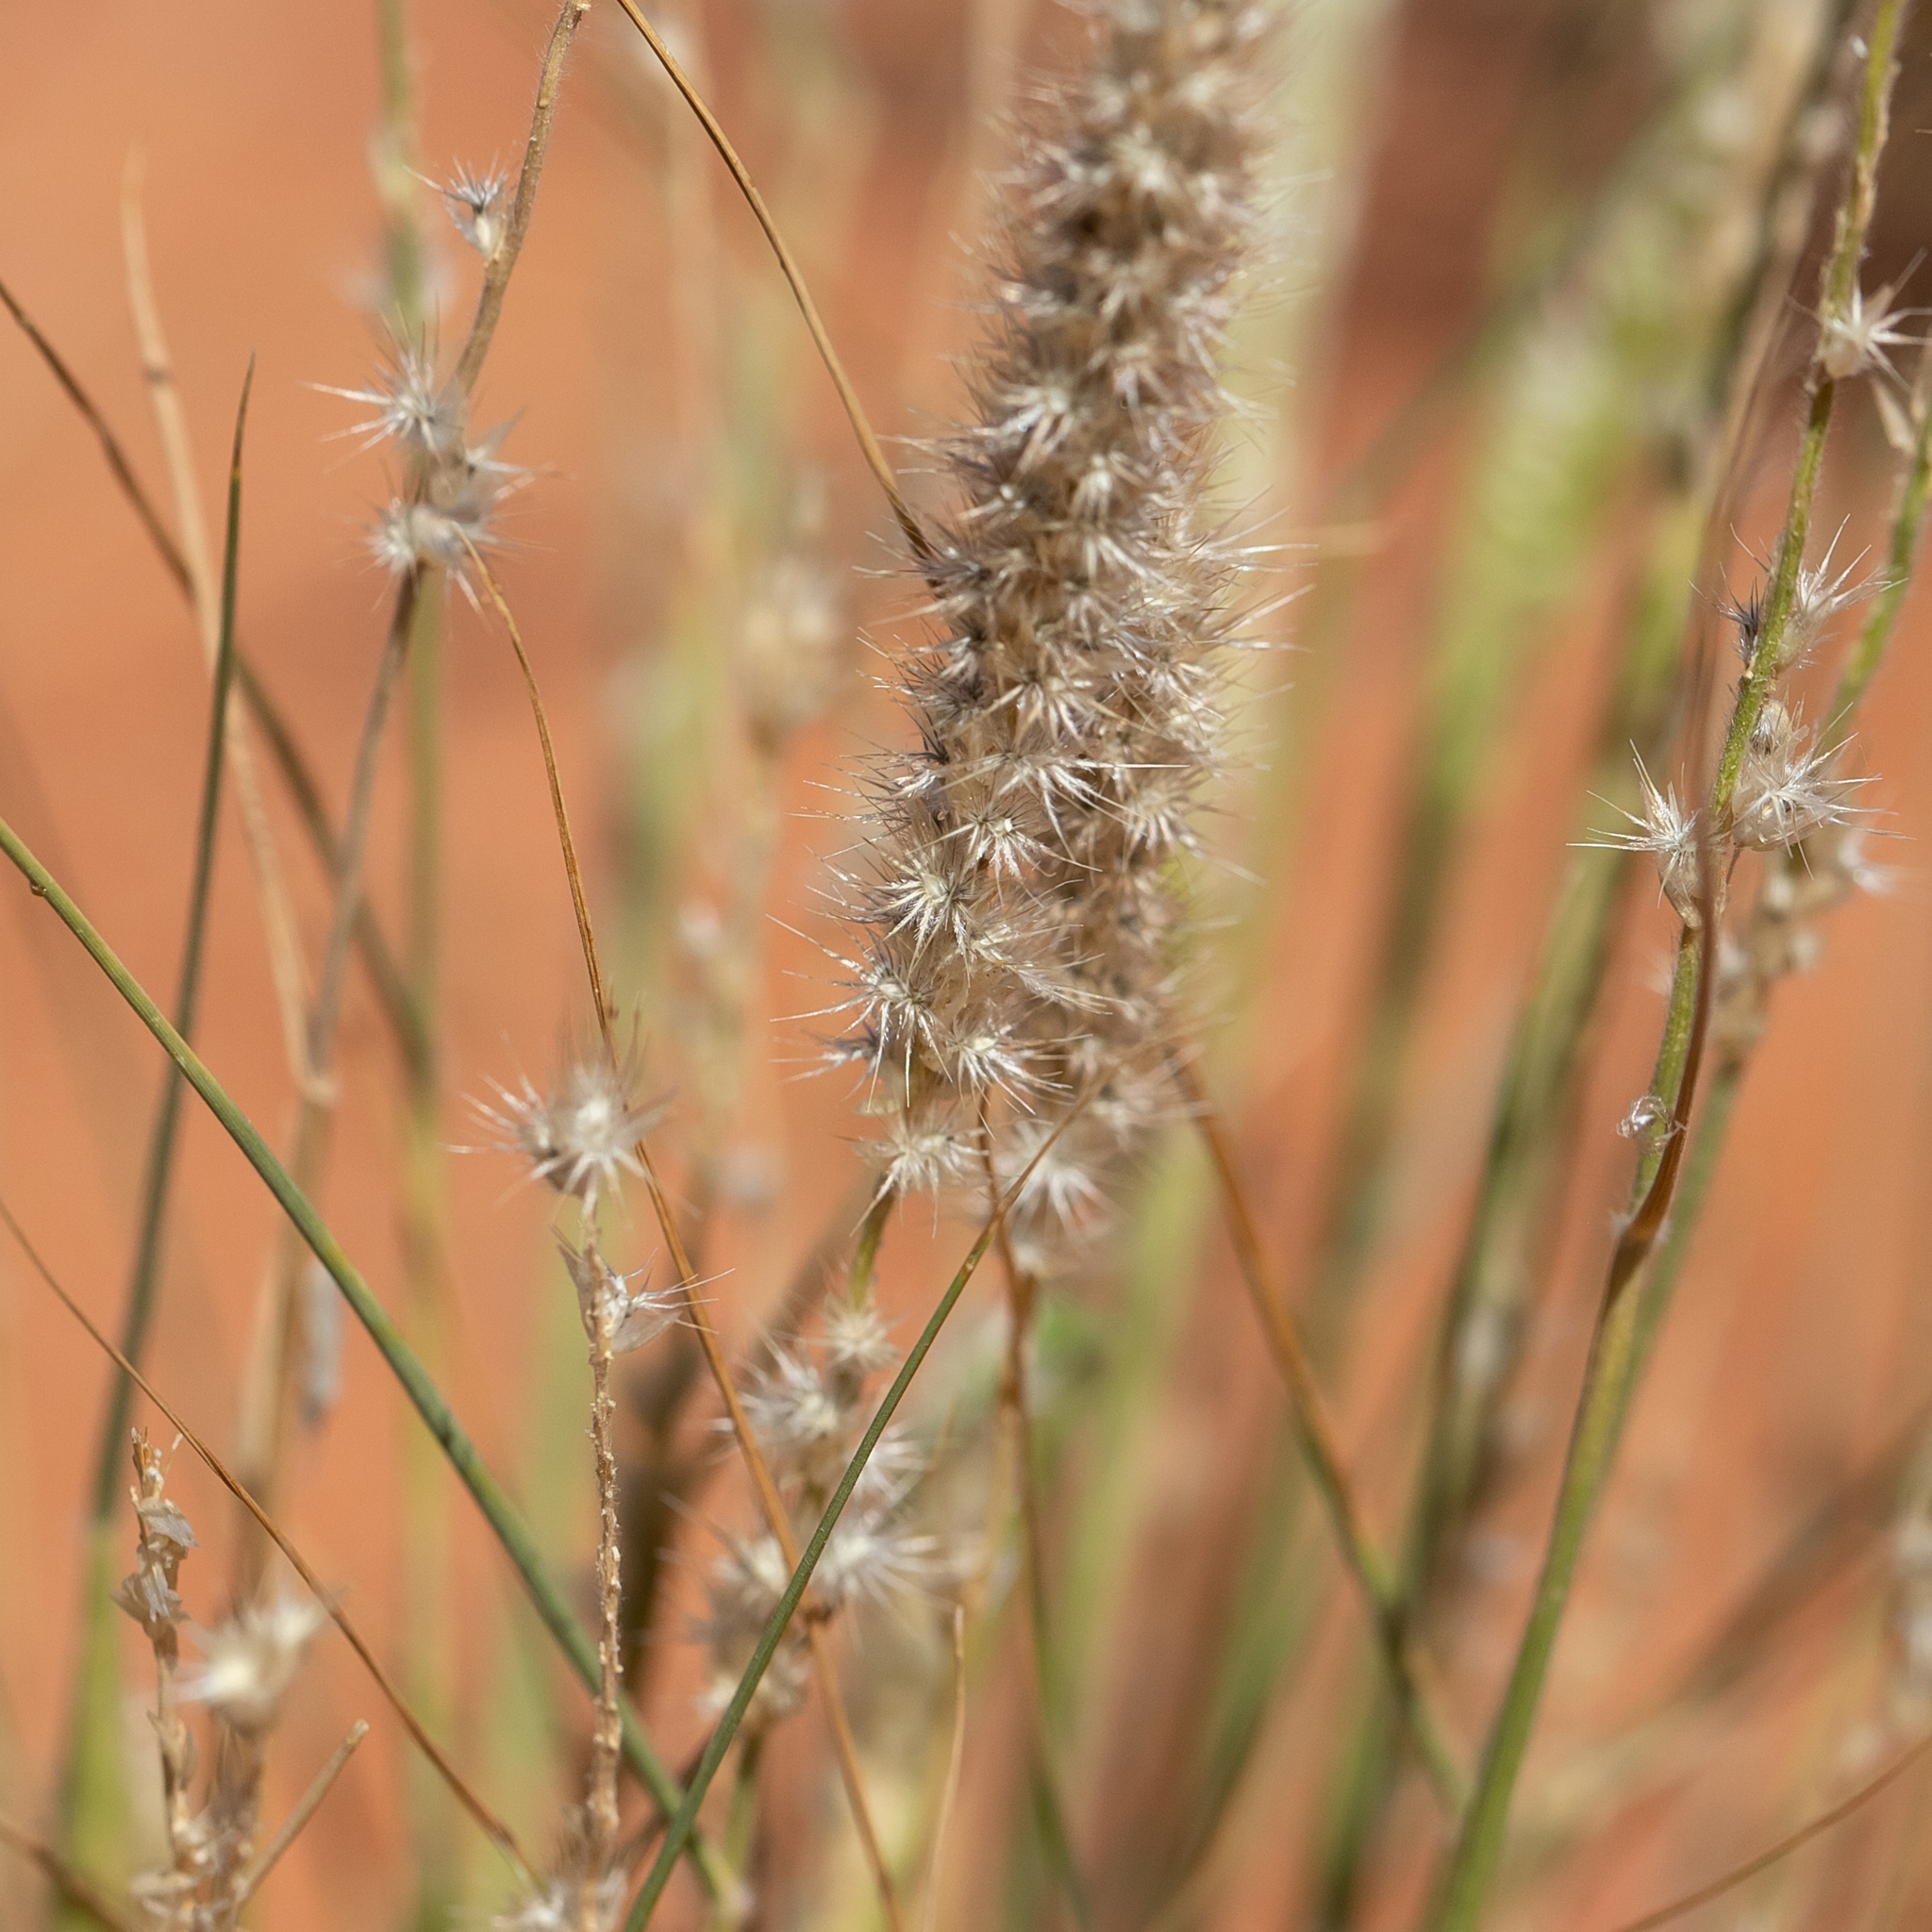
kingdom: Plantae
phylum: Tracheophyta
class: Liliopsida
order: Poales
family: Poaceae
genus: Enneapogon
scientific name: Enneapogon cylindricus
